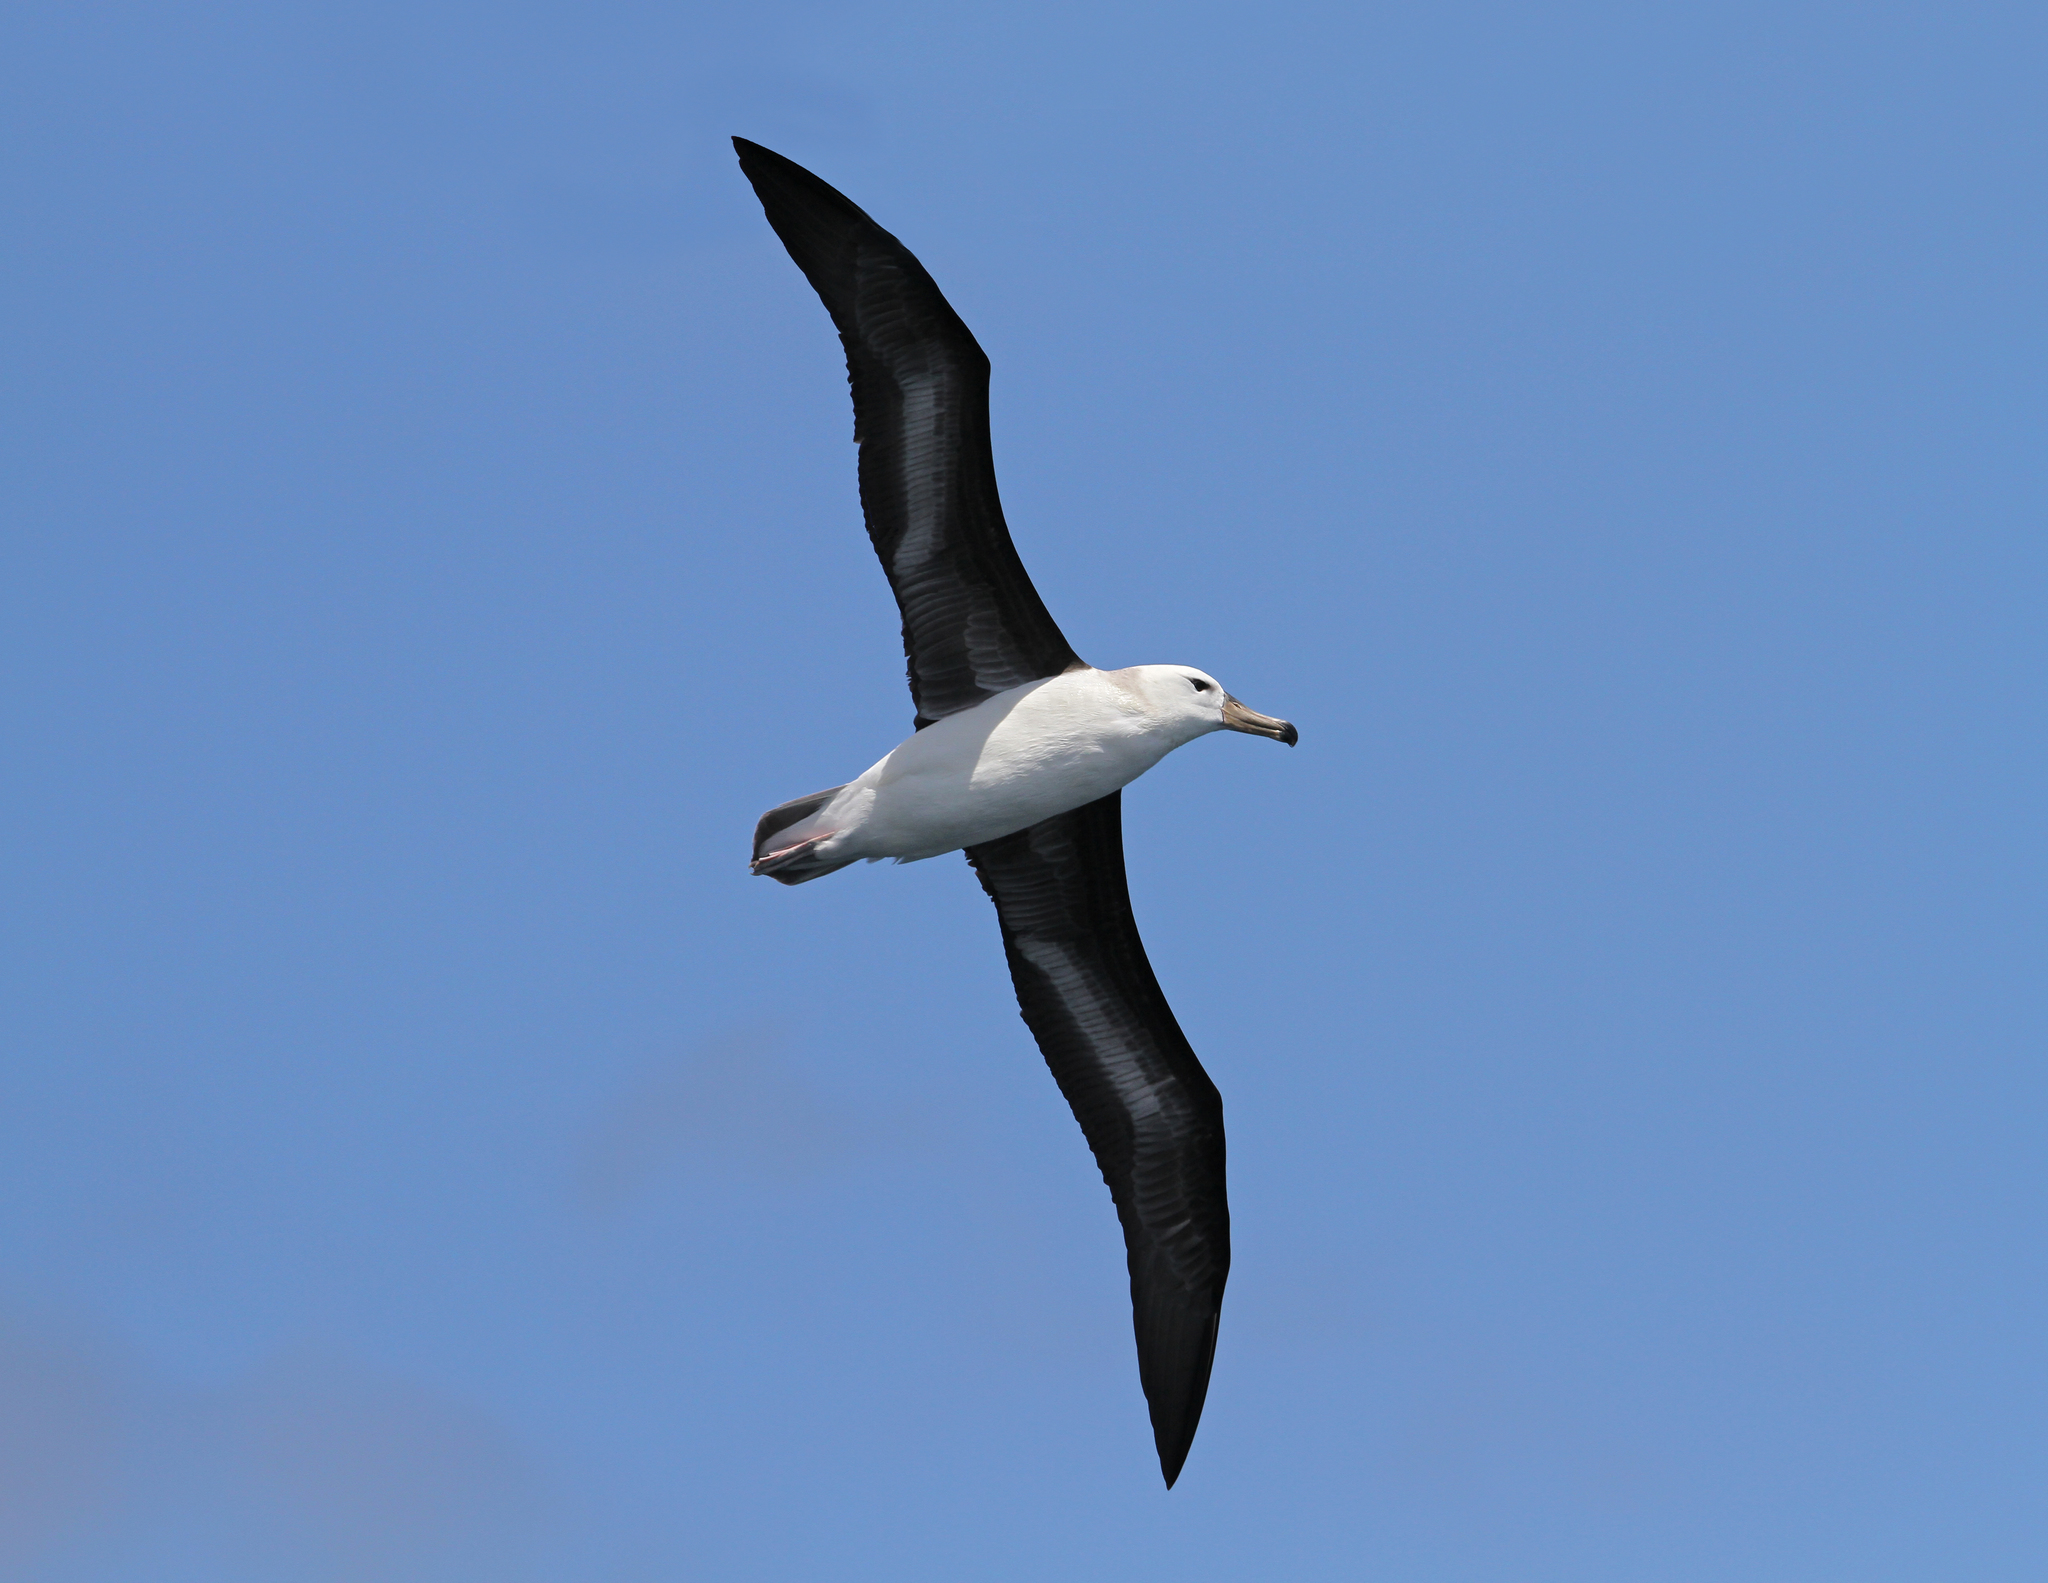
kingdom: Animalia
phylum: Chordata
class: Aves
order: Procellariiformes
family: Diomedeidae
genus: Thalassarche
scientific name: Thalassarche melanophris
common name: Black-browed albatross
